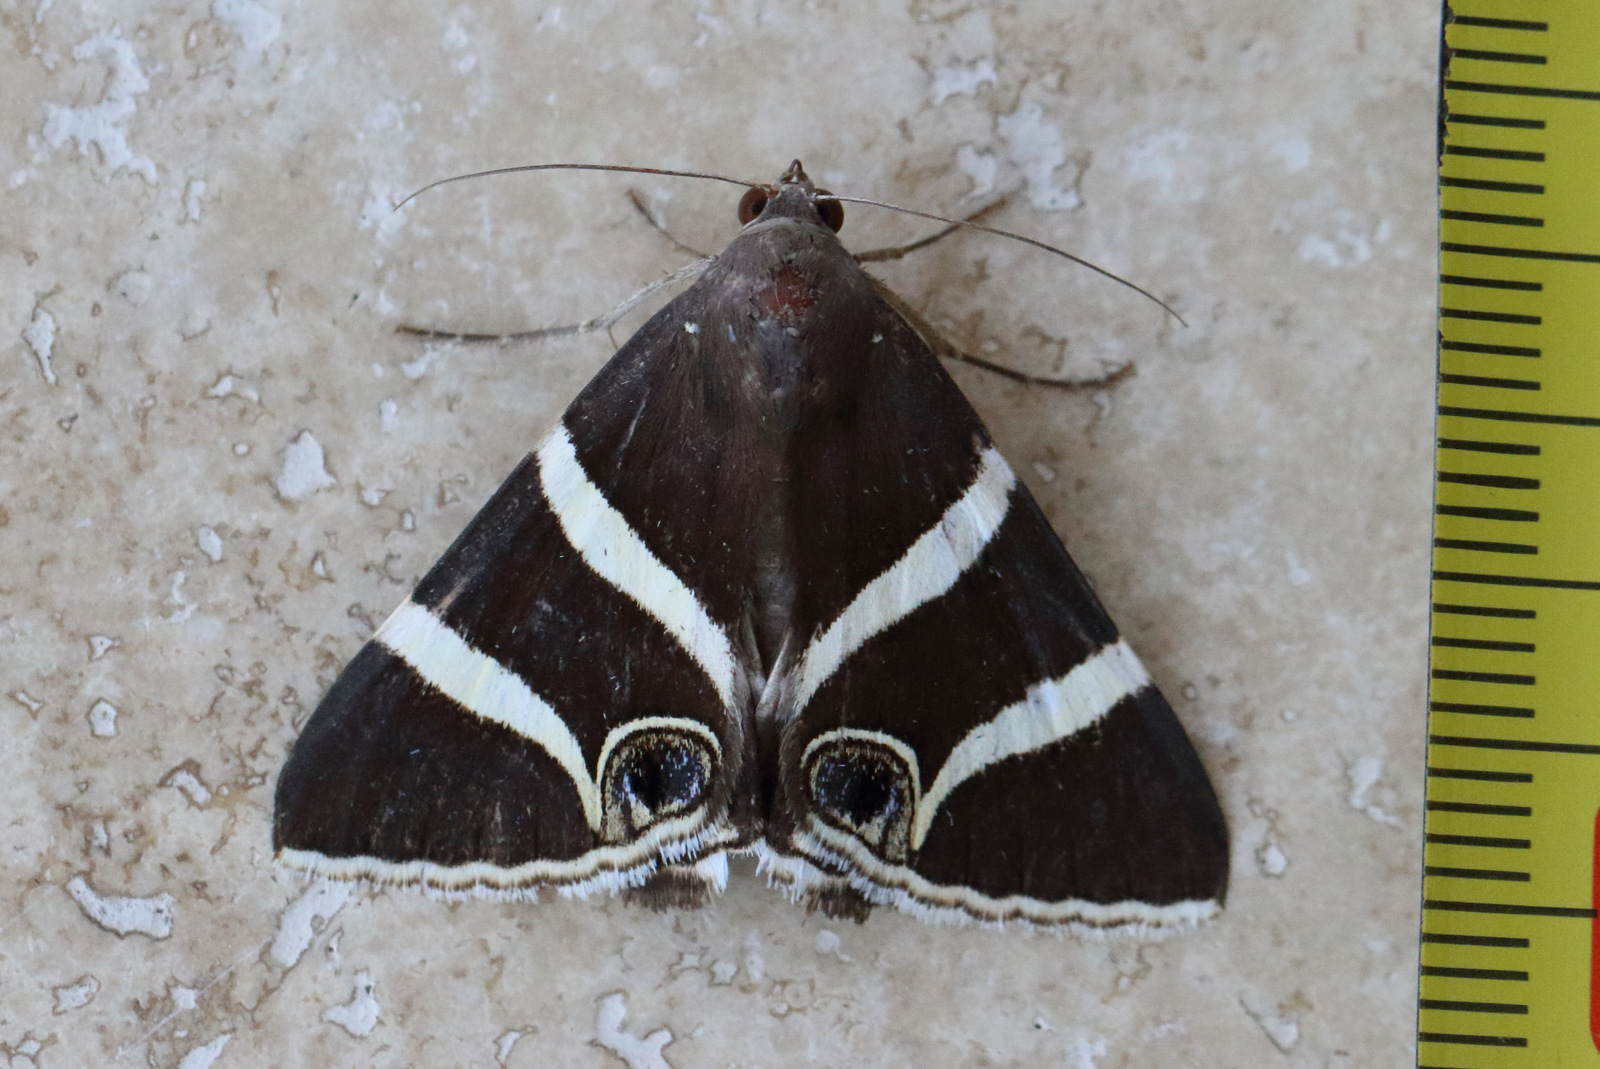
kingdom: Animalia
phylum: Arthropoda
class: Insecta
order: Lepidoptera
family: Erebidae
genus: Grammodes
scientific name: Grammodes ocellata
